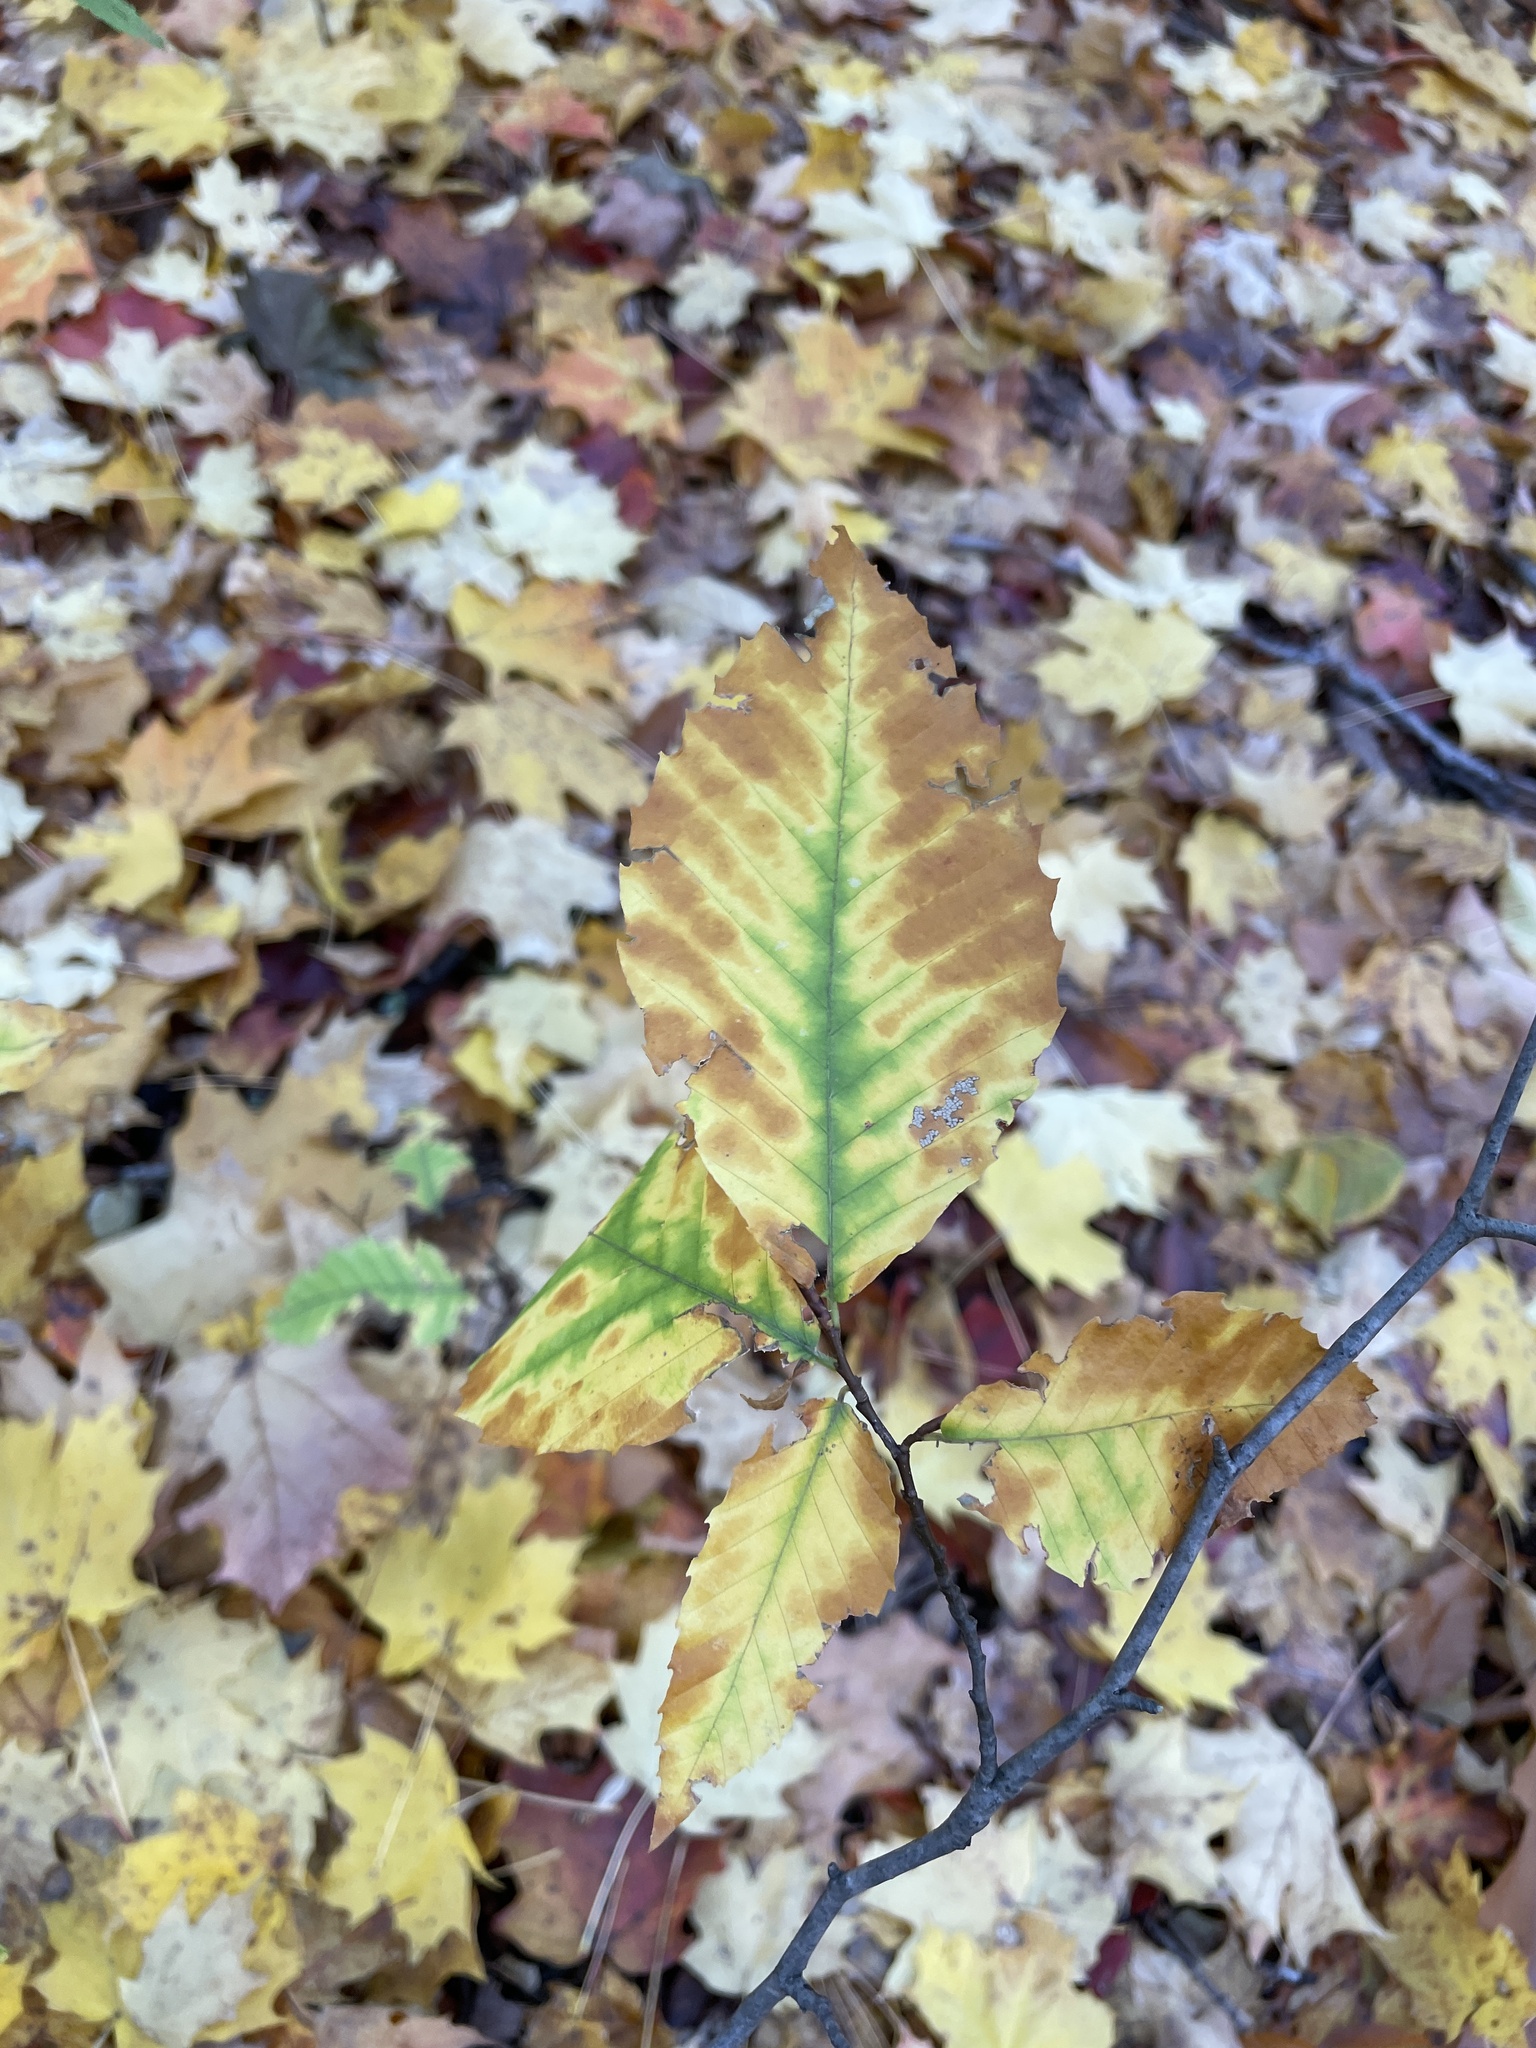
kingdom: Plantae
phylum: Tracheophyta
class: Magnoliopsida
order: Fagales
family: Fagaceae
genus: Fagus
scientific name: Fagus grandifolia
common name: American beech
